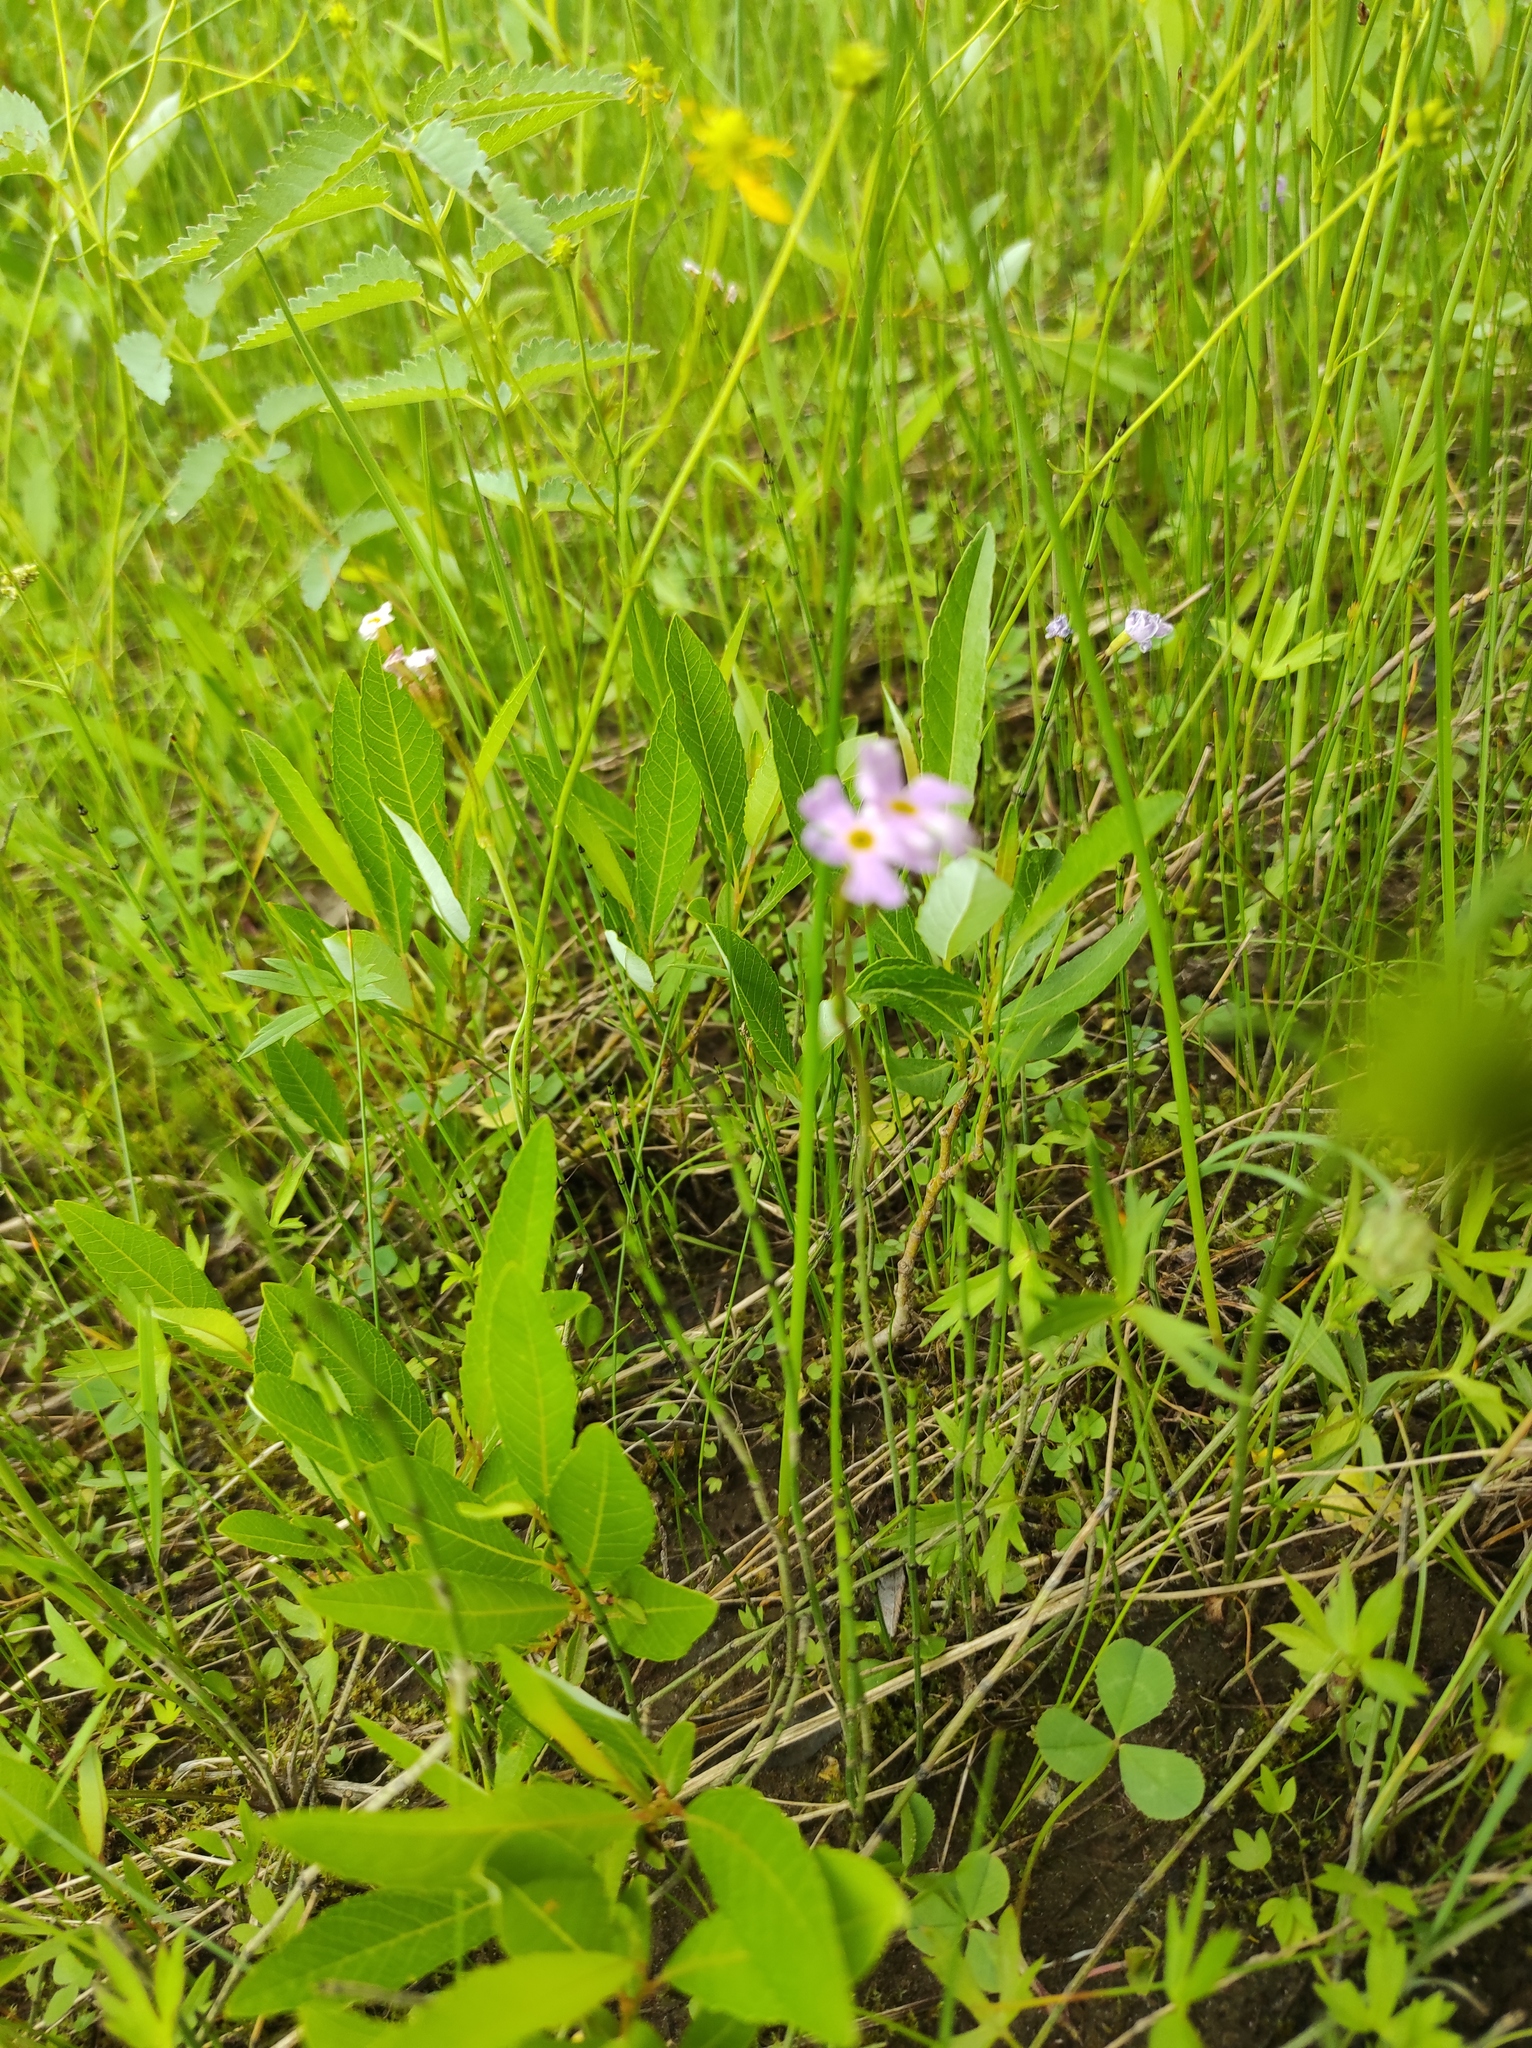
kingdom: Plantae
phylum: Tracheophyta
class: Magnoliopsida
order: Ericales
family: Primulaceae
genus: Primula
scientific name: Primula nutans
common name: Siberian primrose
